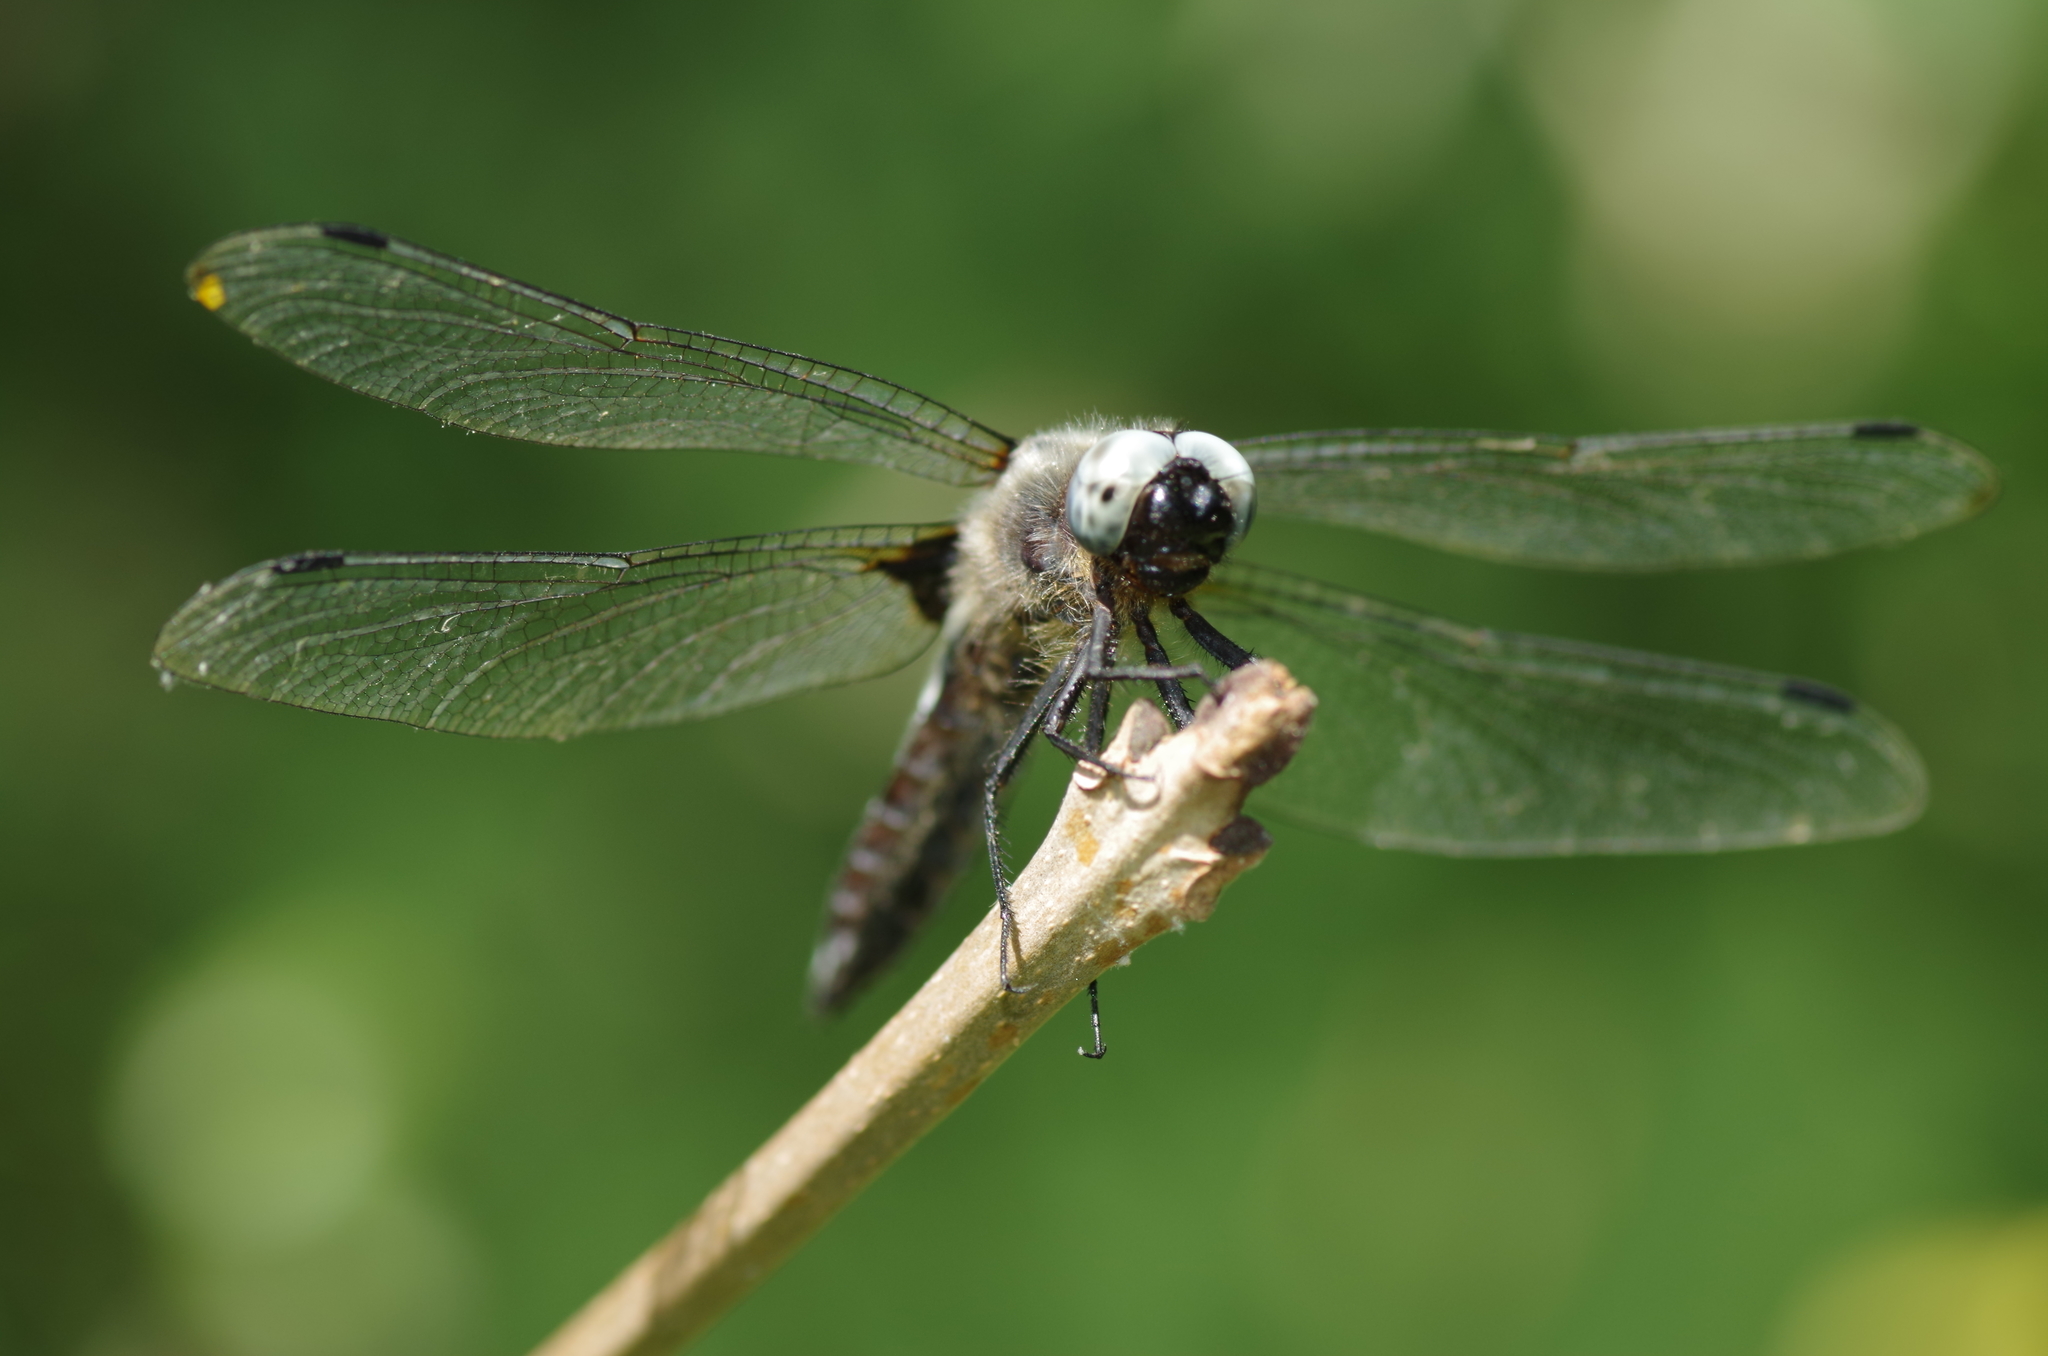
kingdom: Animalia
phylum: Arthropoda
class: Insecta
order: Odonata
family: Libellulidae
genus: Libellula
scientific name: Libellula fulva
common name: Blue chaser
